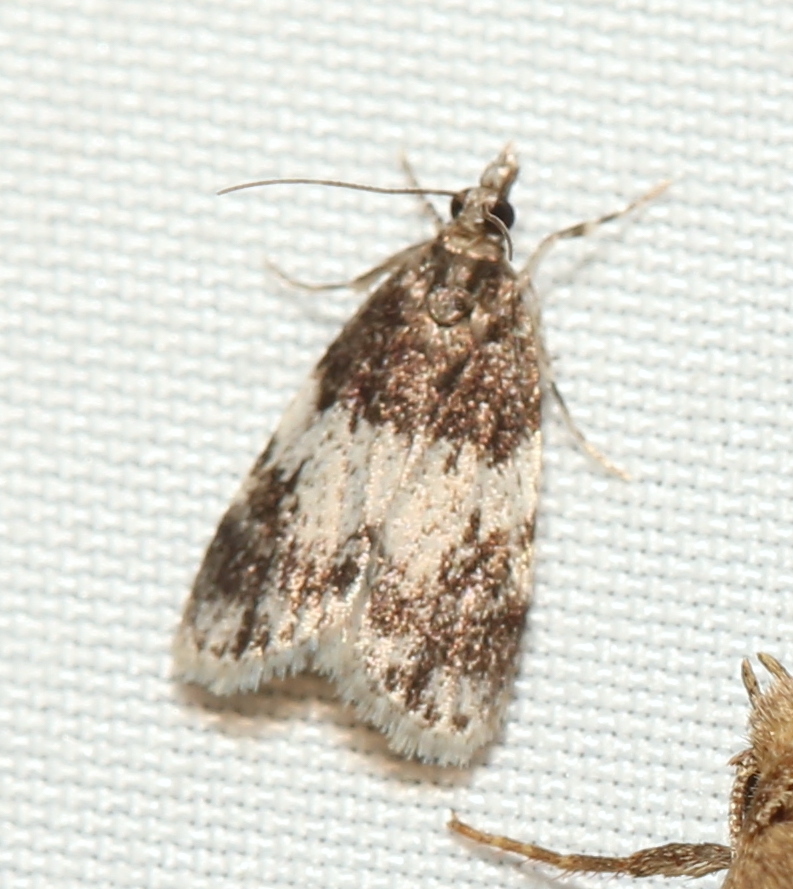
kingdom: Animalia
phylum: Arthropoda
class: Insecta
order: Lepidoptera
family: Crambidae
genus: Scoparia
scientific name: Scoparia cinereomedia
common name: Sooty scoparia moth
